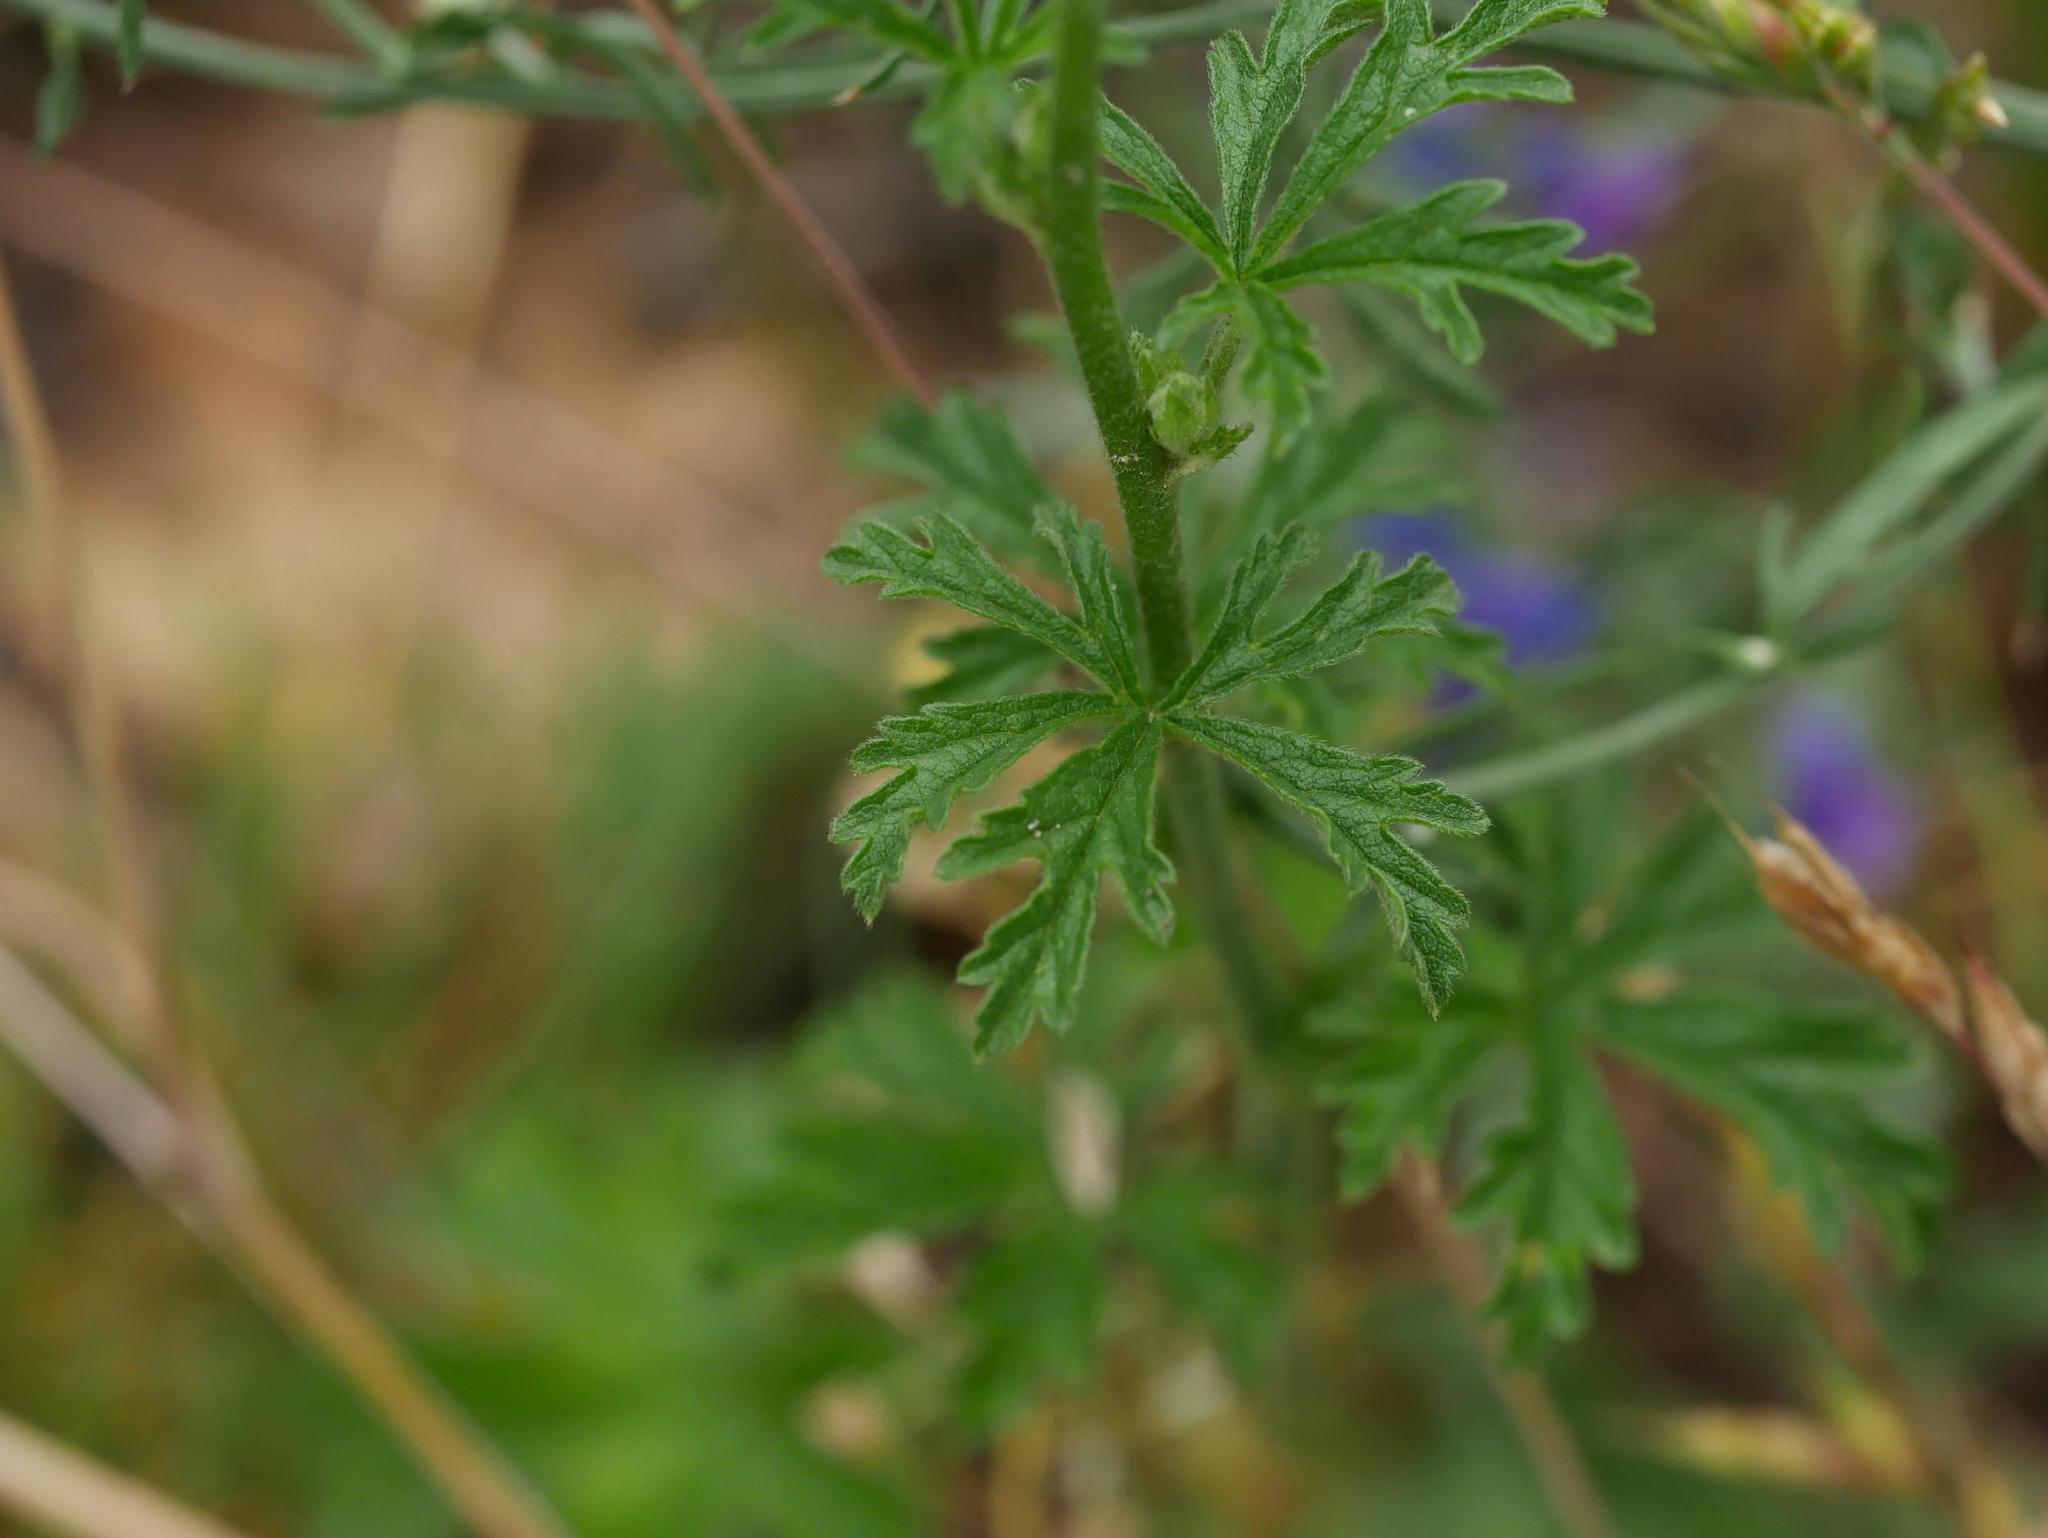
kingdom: Plantae
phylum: Tracheophyta
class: Magnoliopsida
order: Malvales
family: Malvaceae
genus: Malva
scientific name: Malva alcea
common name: Greater musk-mallow
